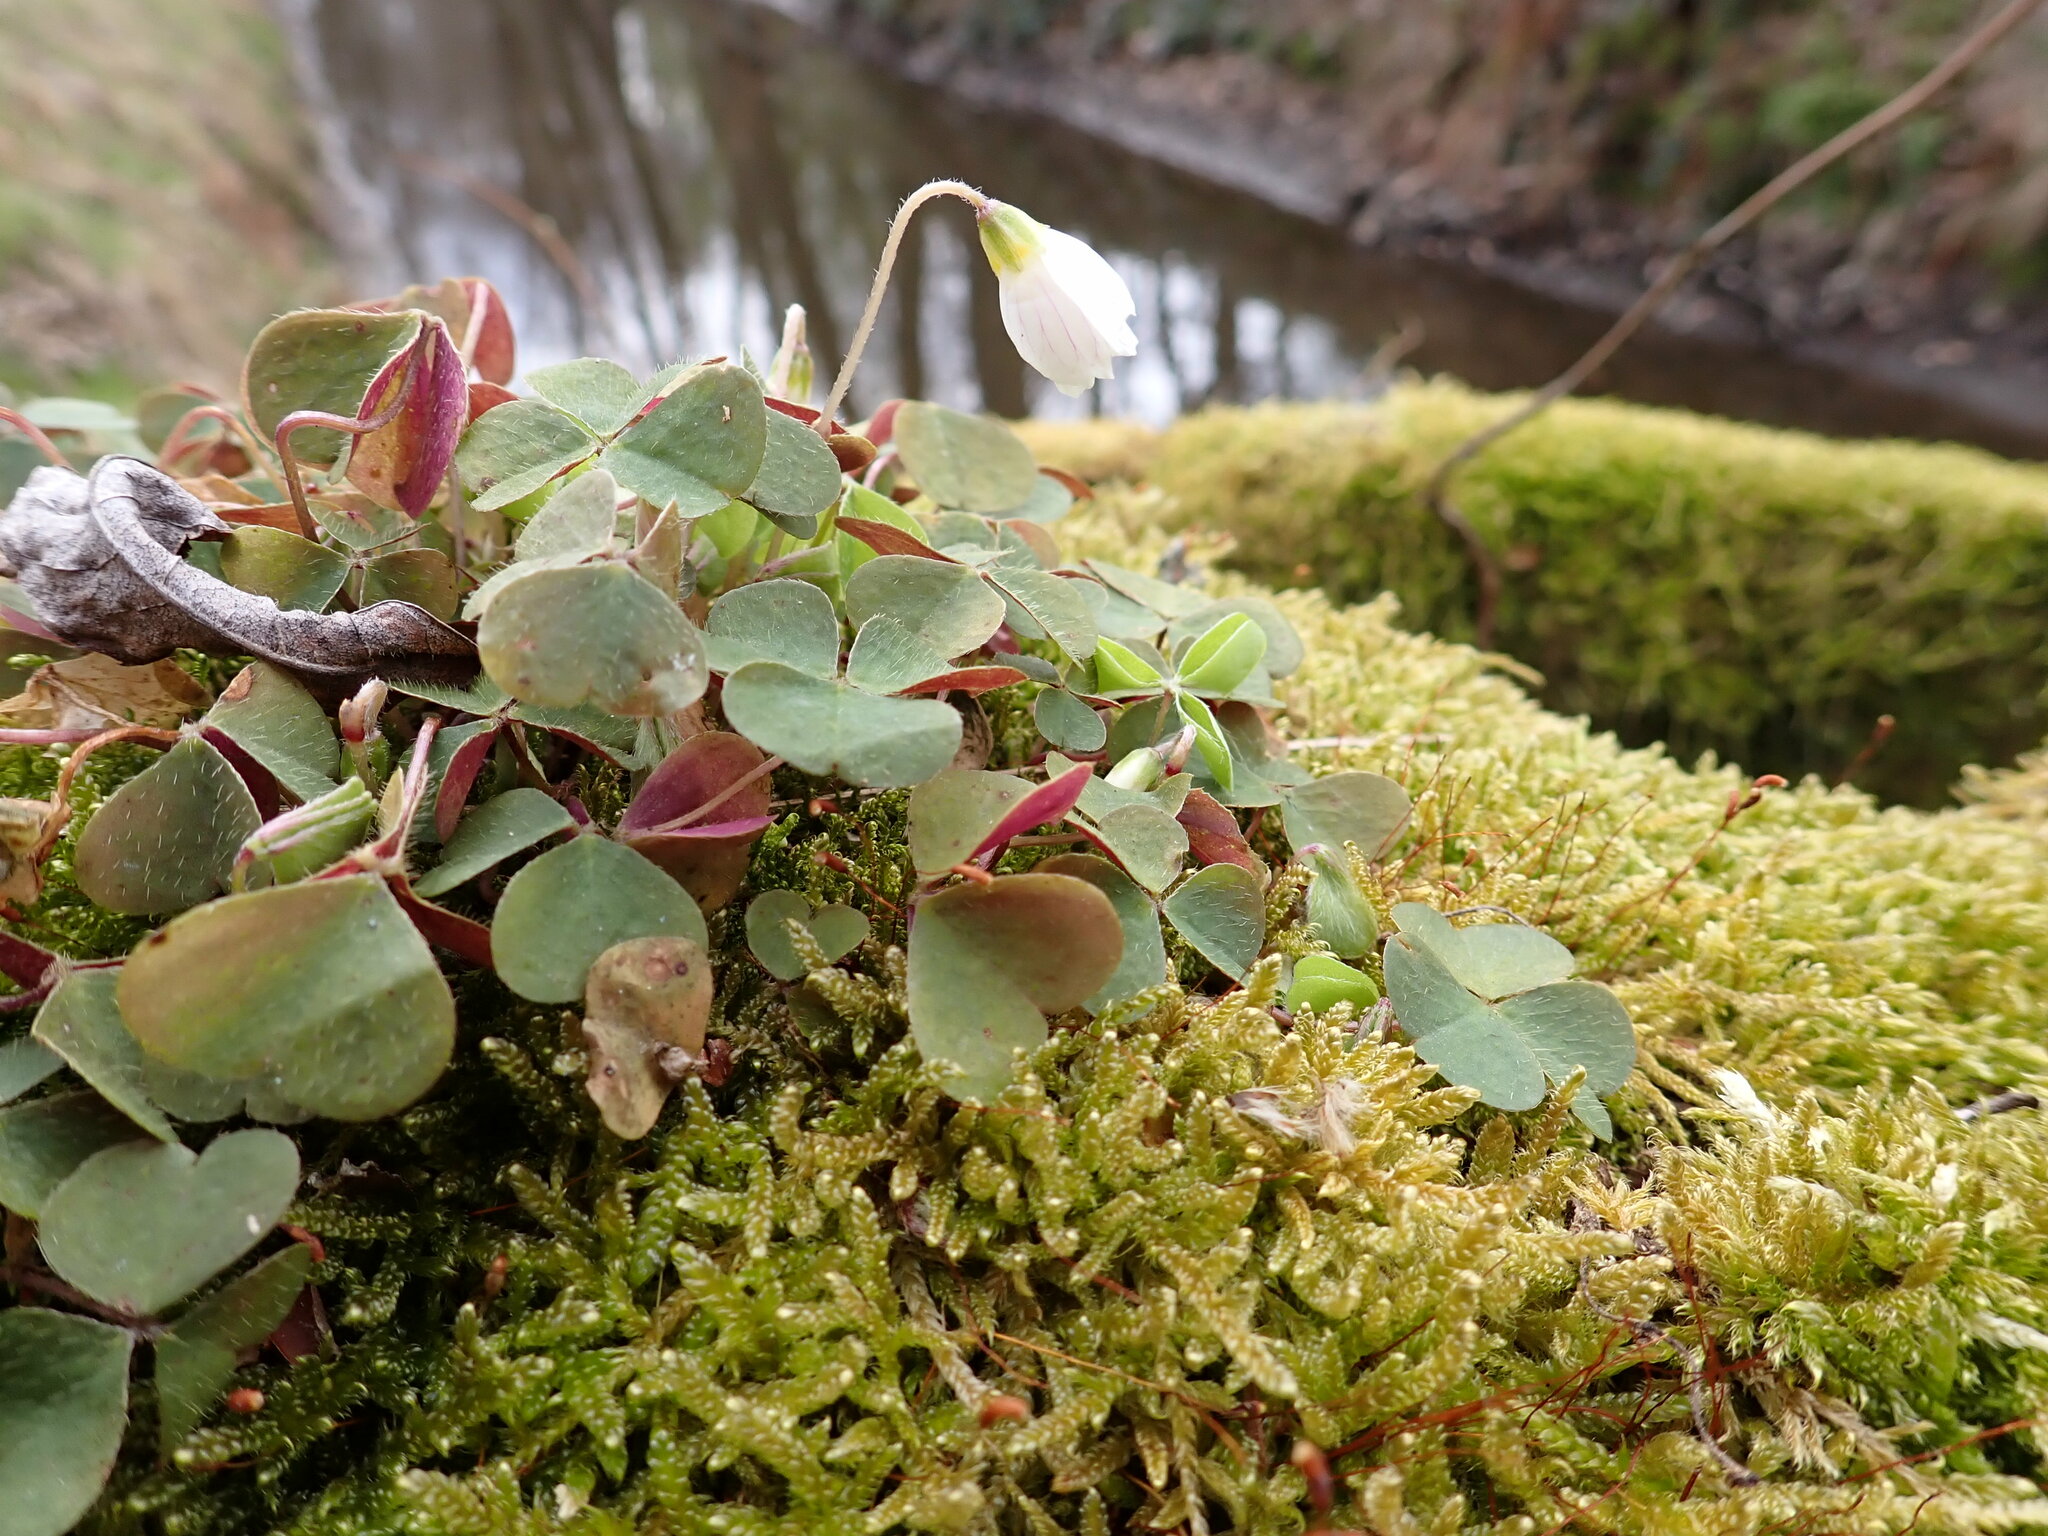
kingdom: Plantae
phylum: Tracheophyta
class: Magnoliopsida
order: Oxalidales
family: Oxalidaceae
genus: Oxalis
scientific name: Oxalis acetosella
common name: Wood-sorrel
